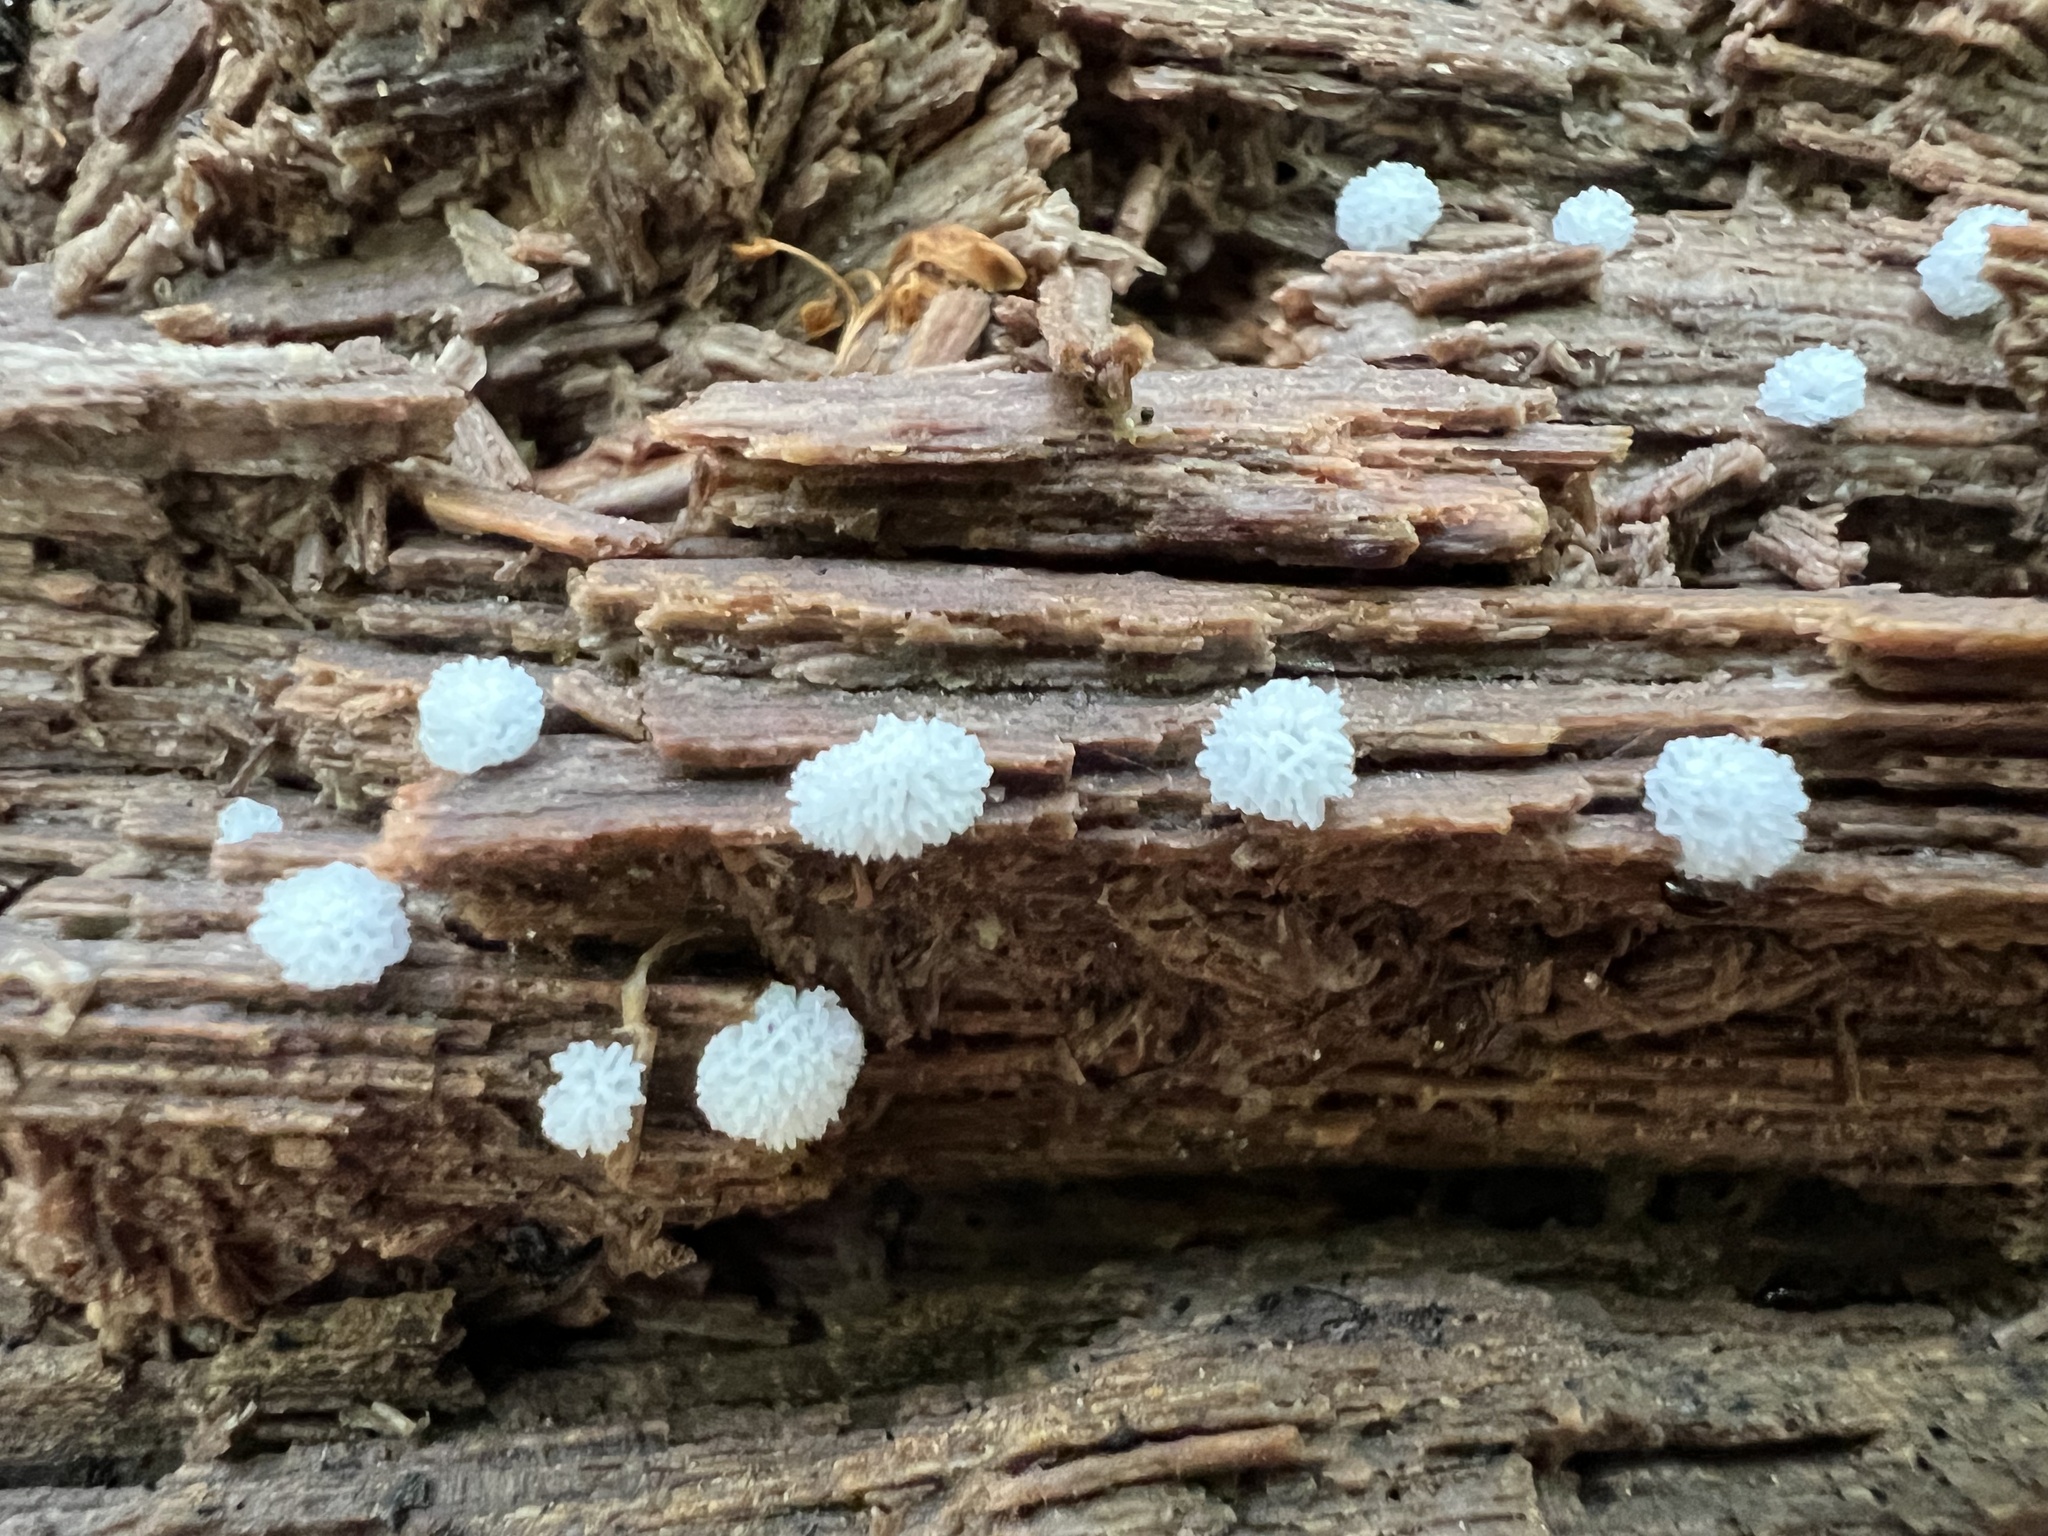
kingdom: Protozoa
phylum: Mycetozoa
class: Protosteliomycetes
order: Ceratiomyxales
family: Ceratiomyxaceae
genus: Ceratiomyxa
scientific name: Ceratiomyxa fruticulosa
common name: Honeycomb coral slime mold
